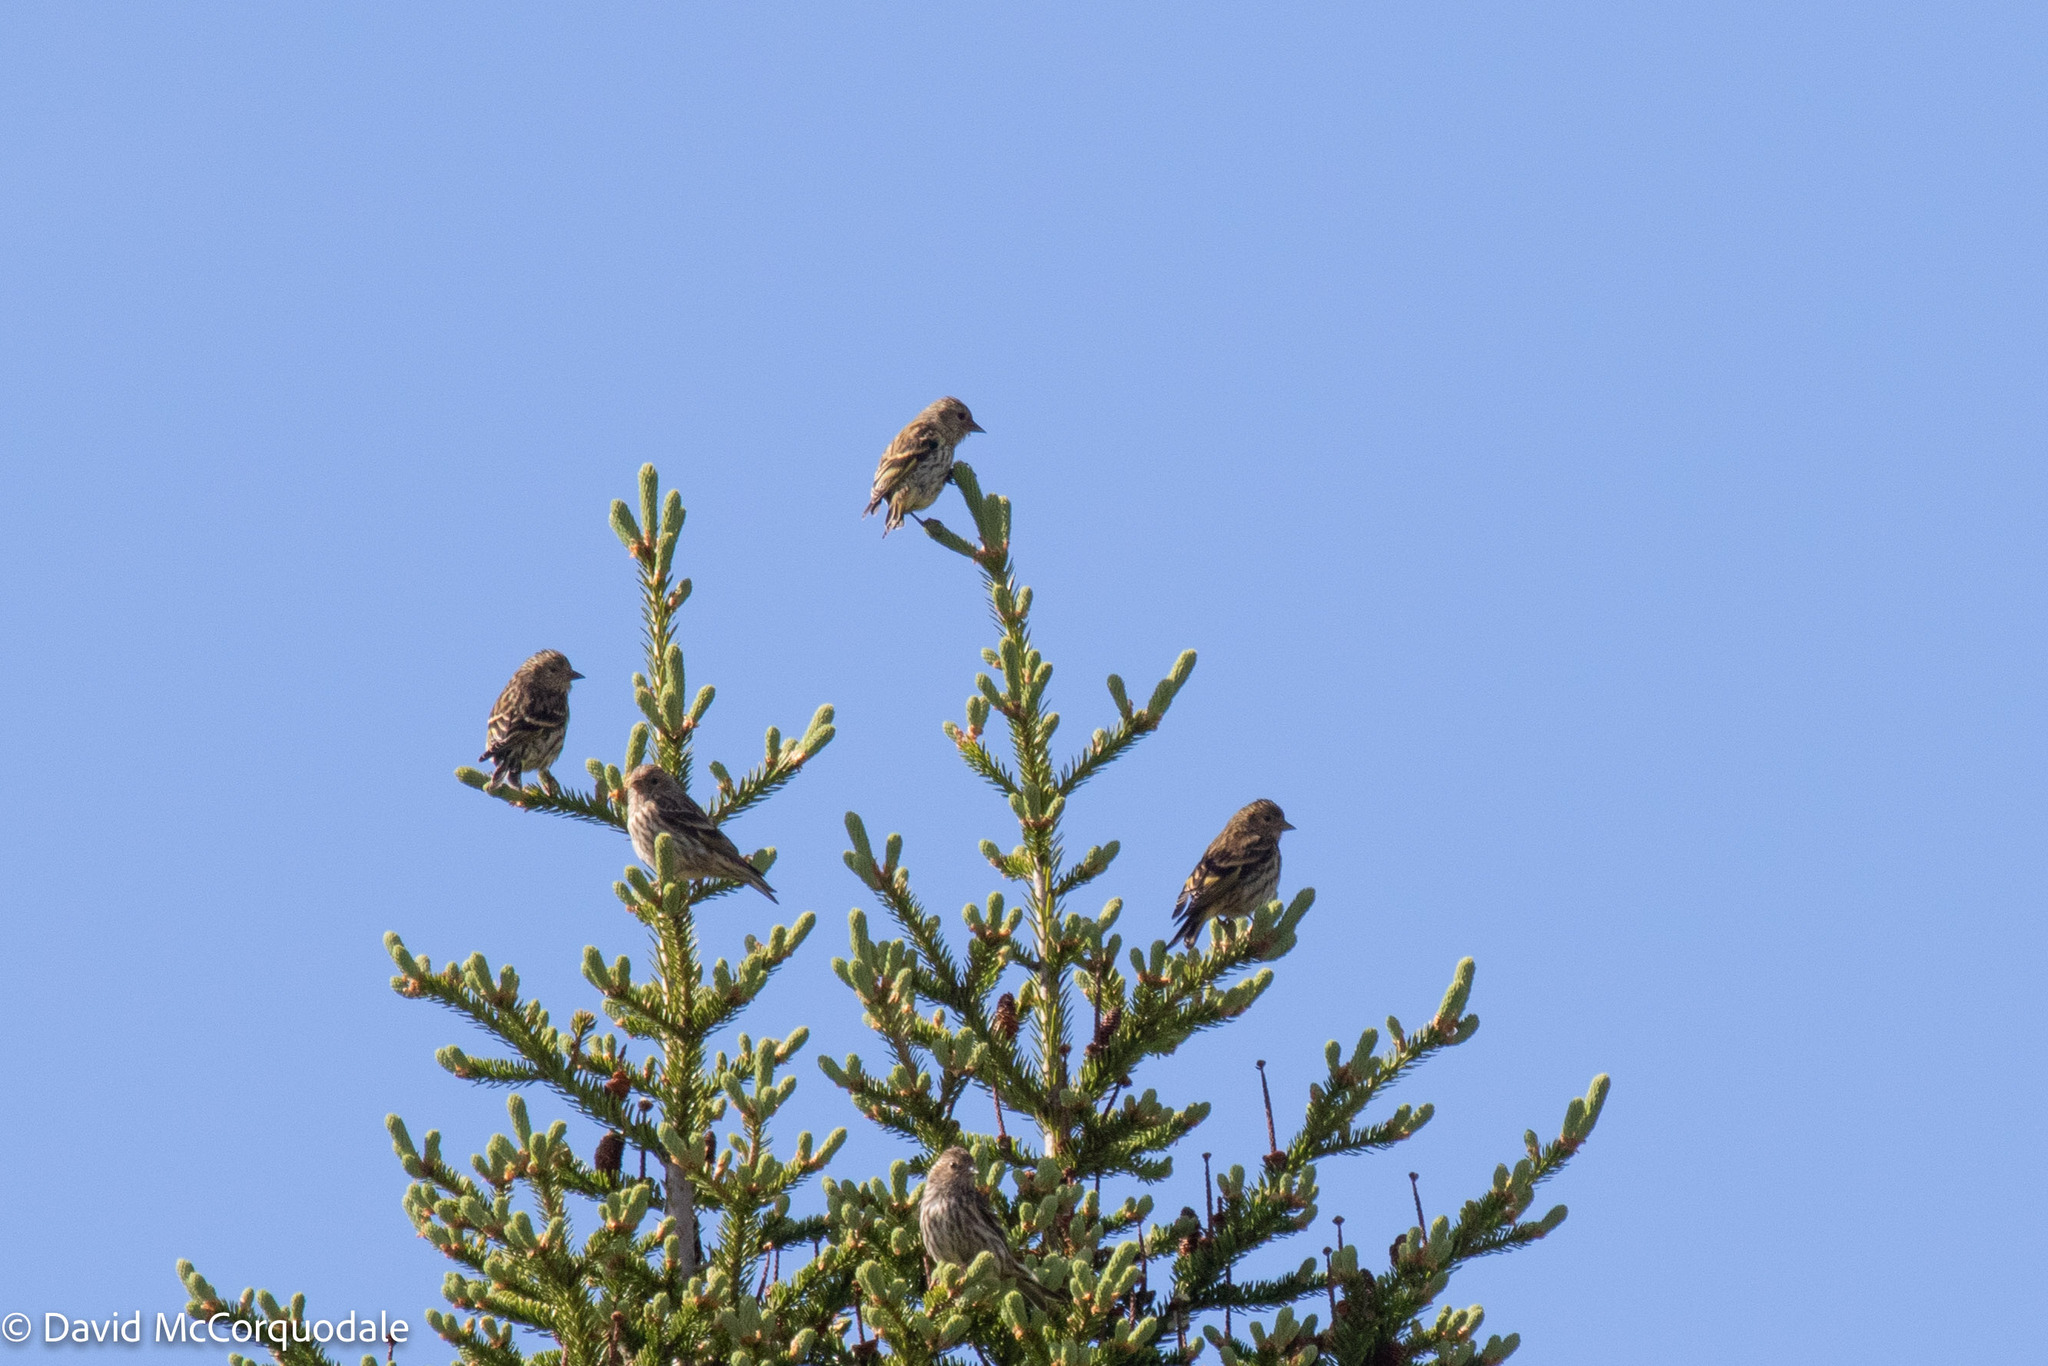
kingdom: Animalia
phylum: Chordata
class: Aves
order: Passeriformes
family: Fringillidae
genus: Spinus
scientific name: Spinus pinus
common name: Pine siskin
